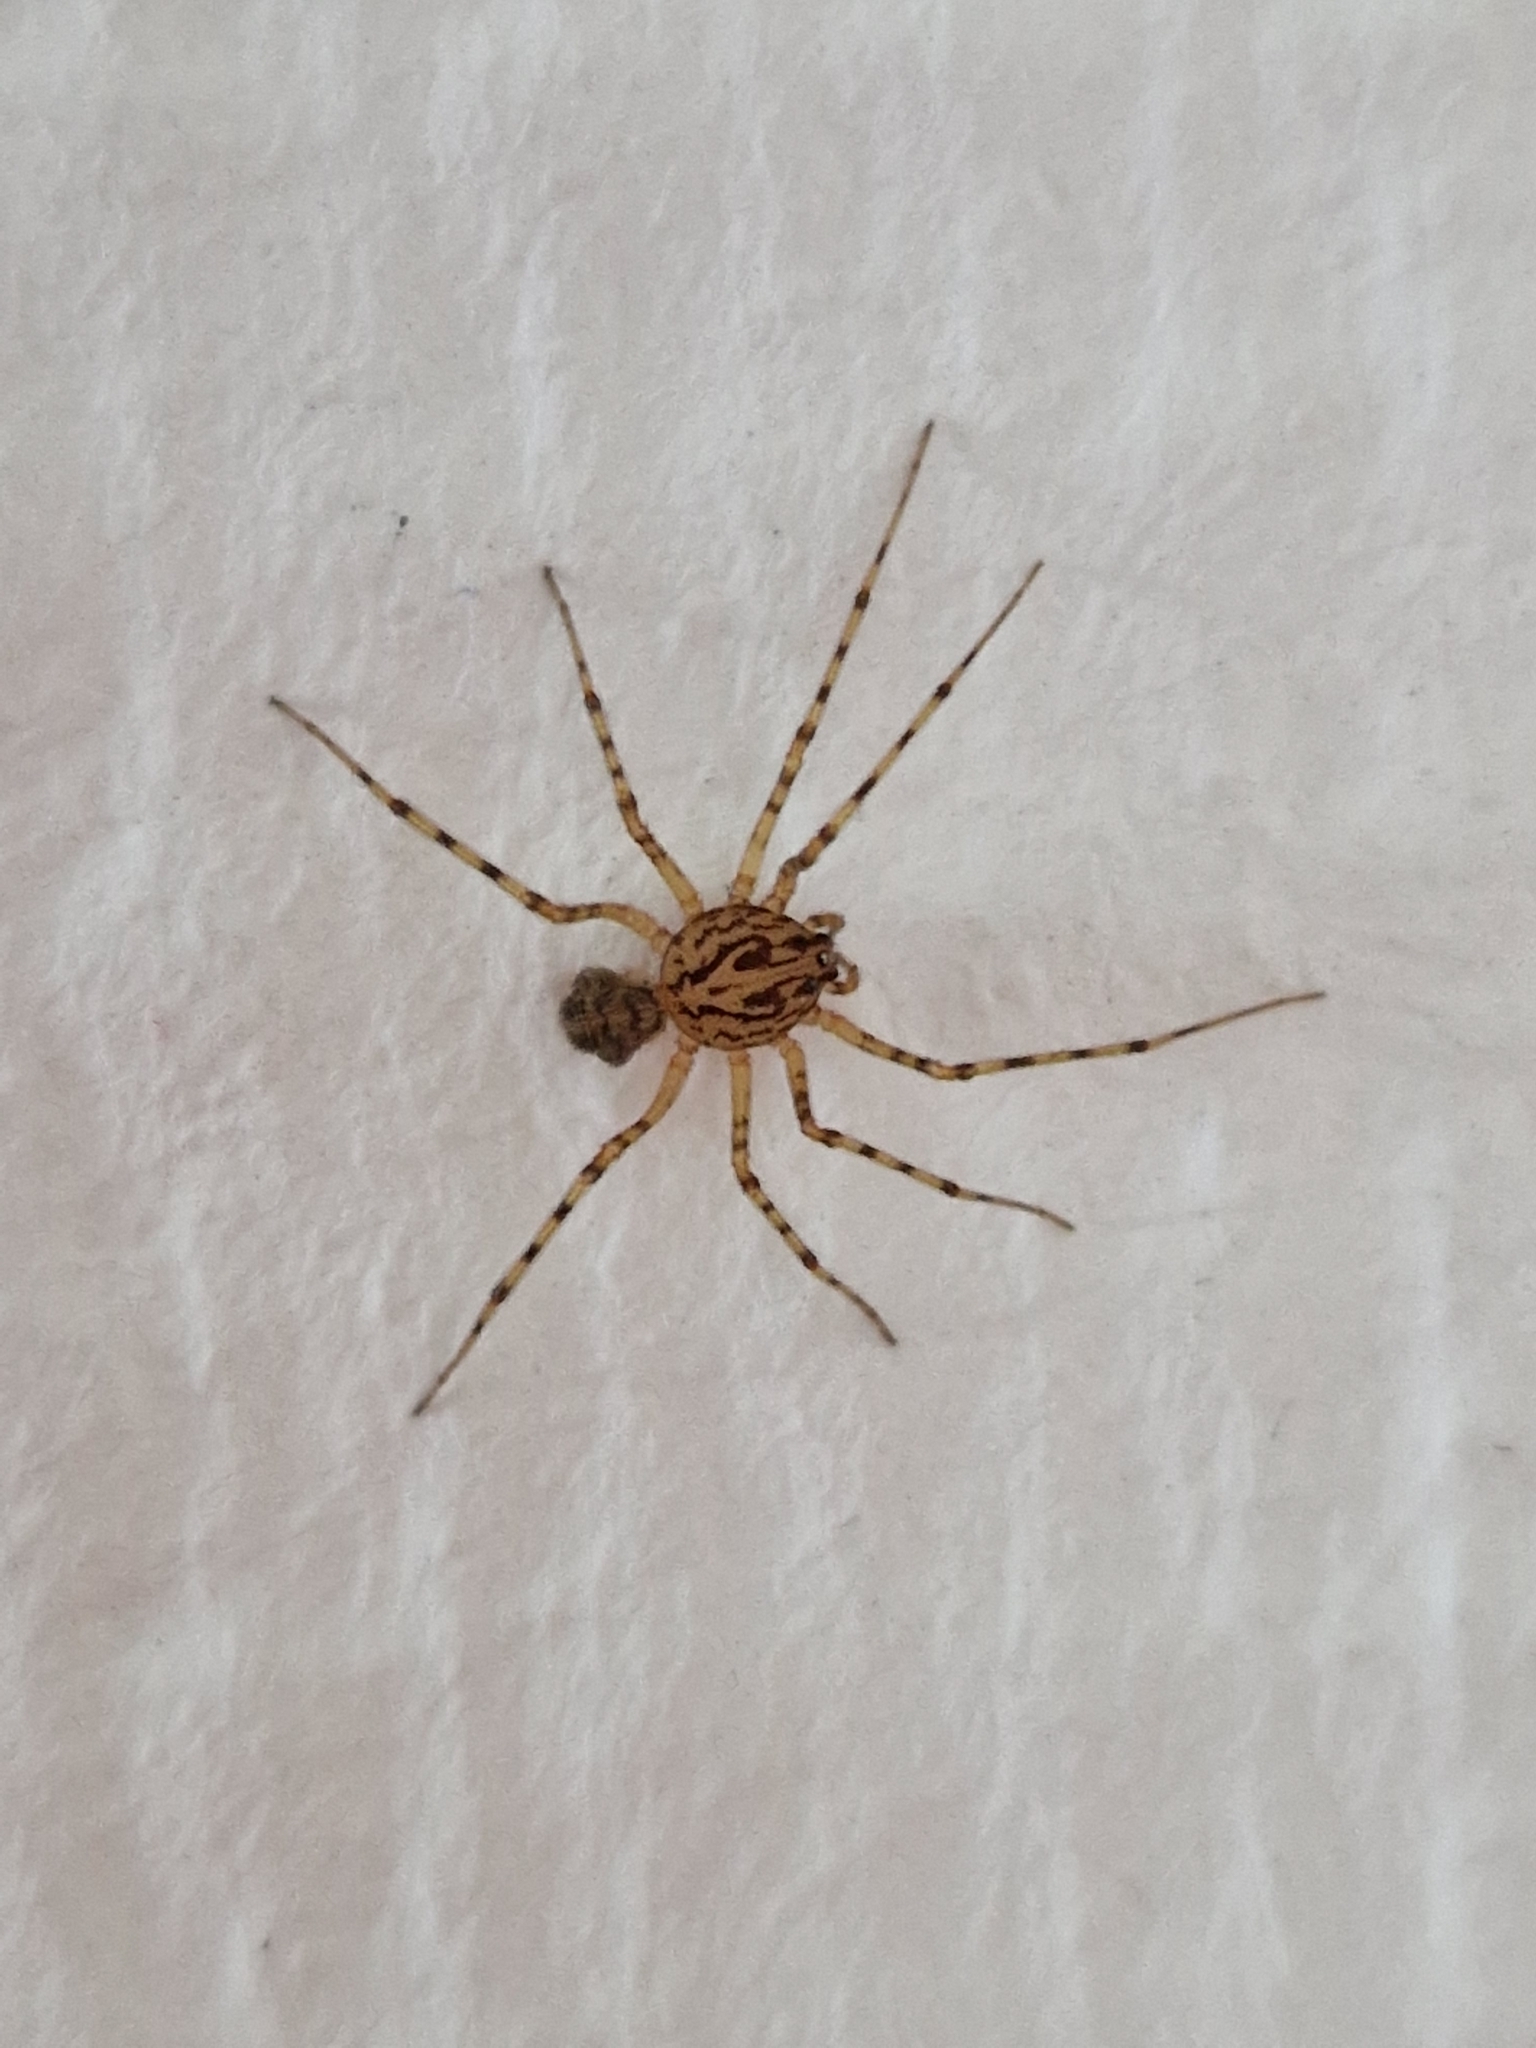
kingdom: Animalia
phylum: Arthropoda
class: Arachnida
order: Araneae
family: Scytodidae
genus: Scytodes
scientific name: Scytodes thoracica
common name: Spitting spider
